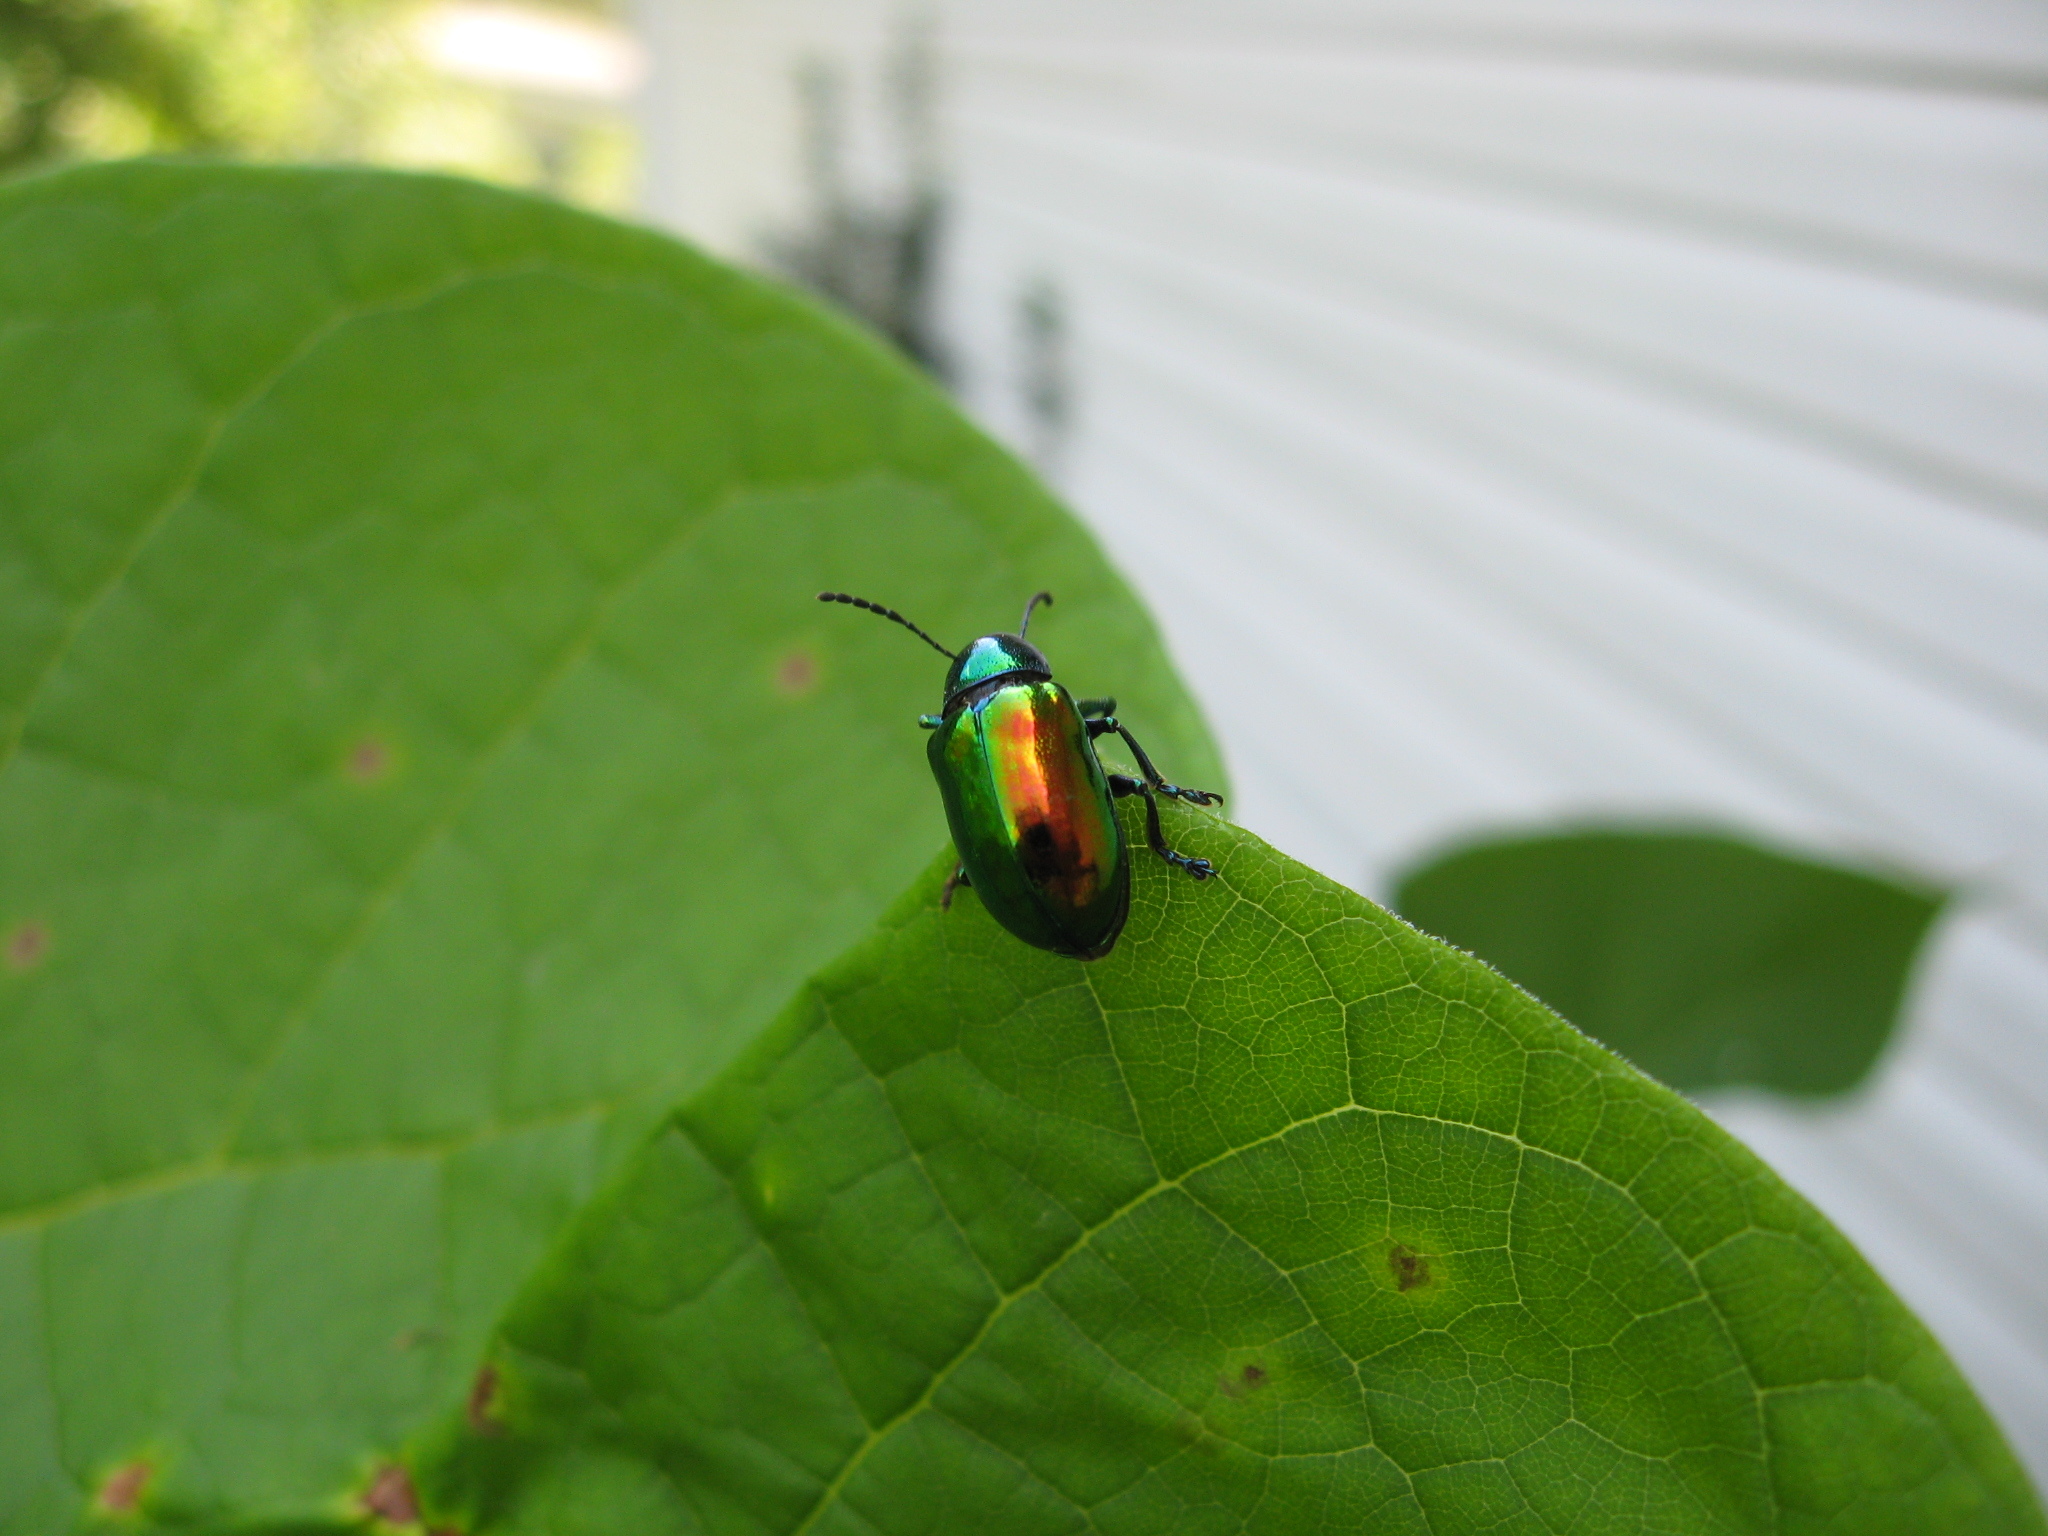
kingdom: Animalia
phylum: Arthropoda
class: Insecta
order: Coleoptera
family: Chrysomelidae
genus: Chrysochus
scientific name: Chrysochus auratus
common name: Dogbane leaf beetle
